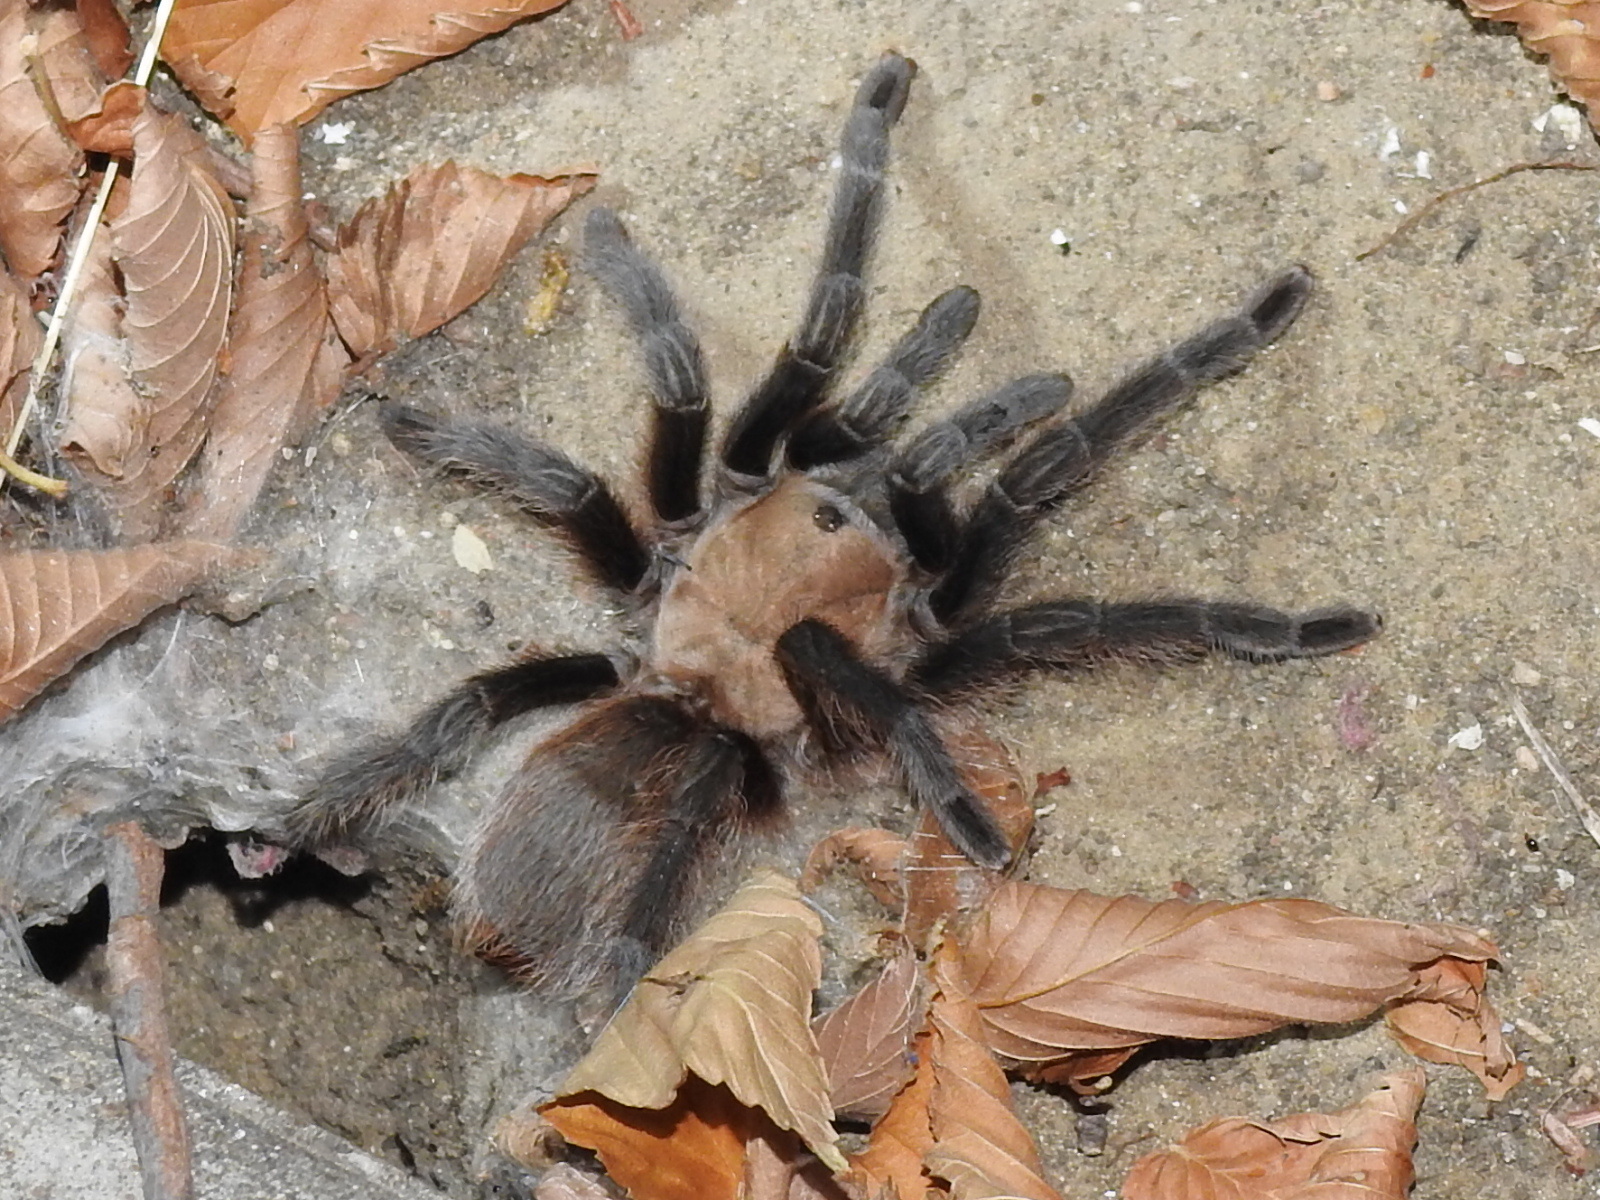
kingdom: Animalia
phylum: Arthropoda
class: Arachnida
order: Araneae
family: Theraphosidae
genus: Aphonopelma
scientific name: Aphonopelma hentzi
